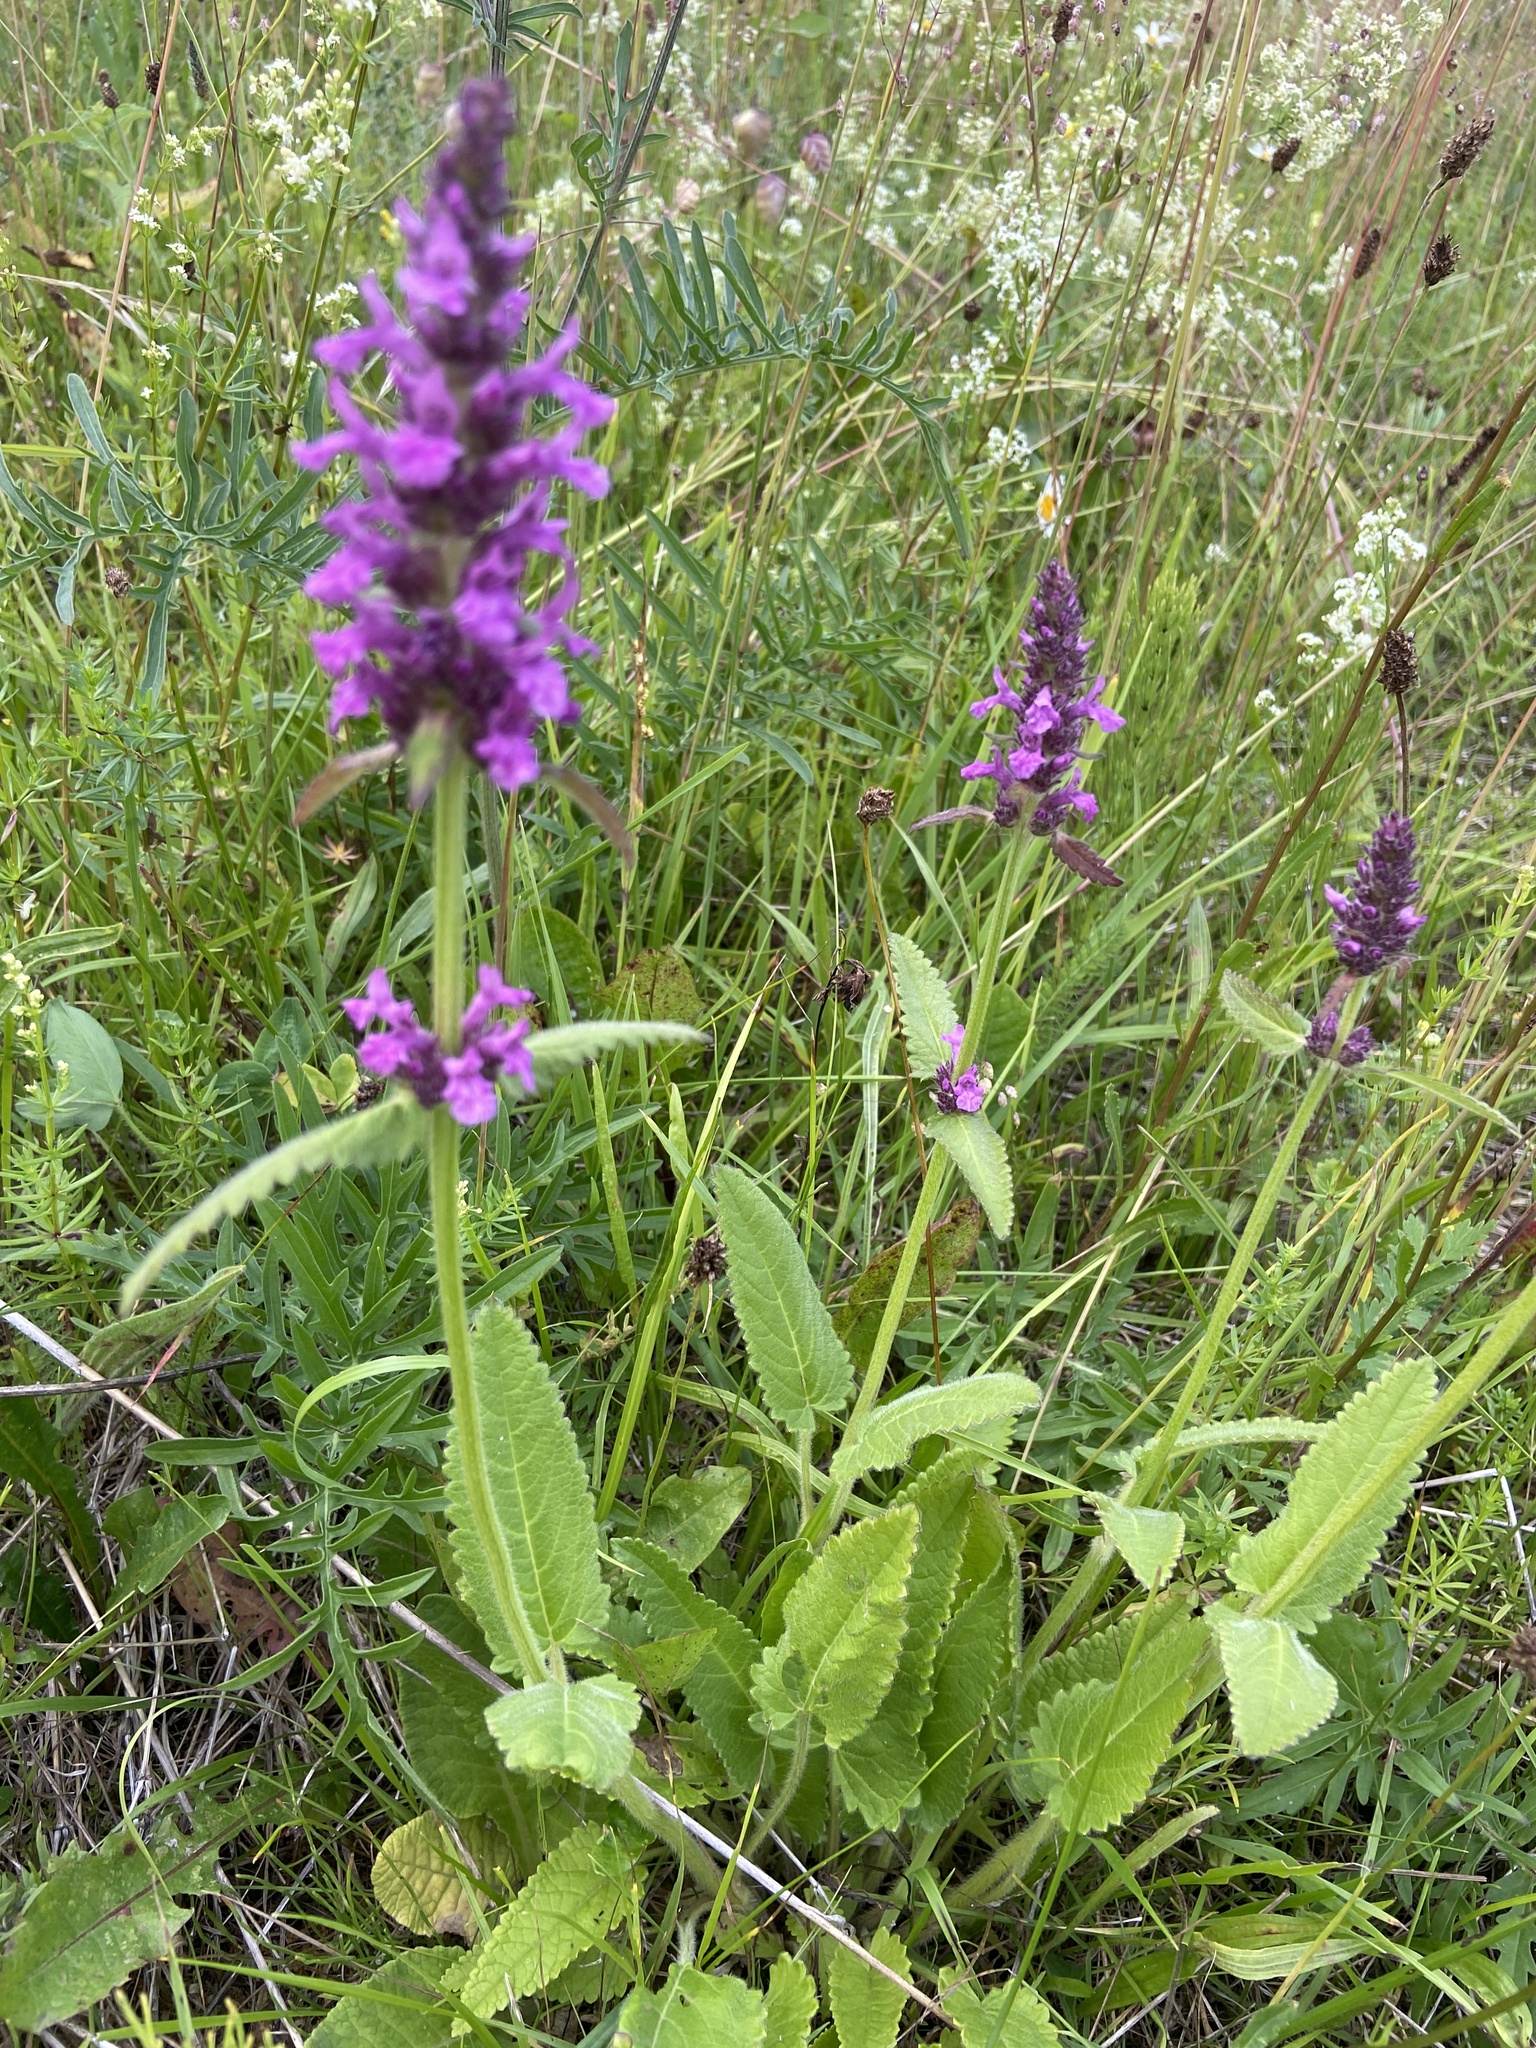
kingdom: Plantae
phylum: Tracheophyta
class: Magnoliopsida
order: Lamiales
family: Lamiaceae
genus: Betonica
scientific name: Betonica officinalis
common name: Bishop's-wort
